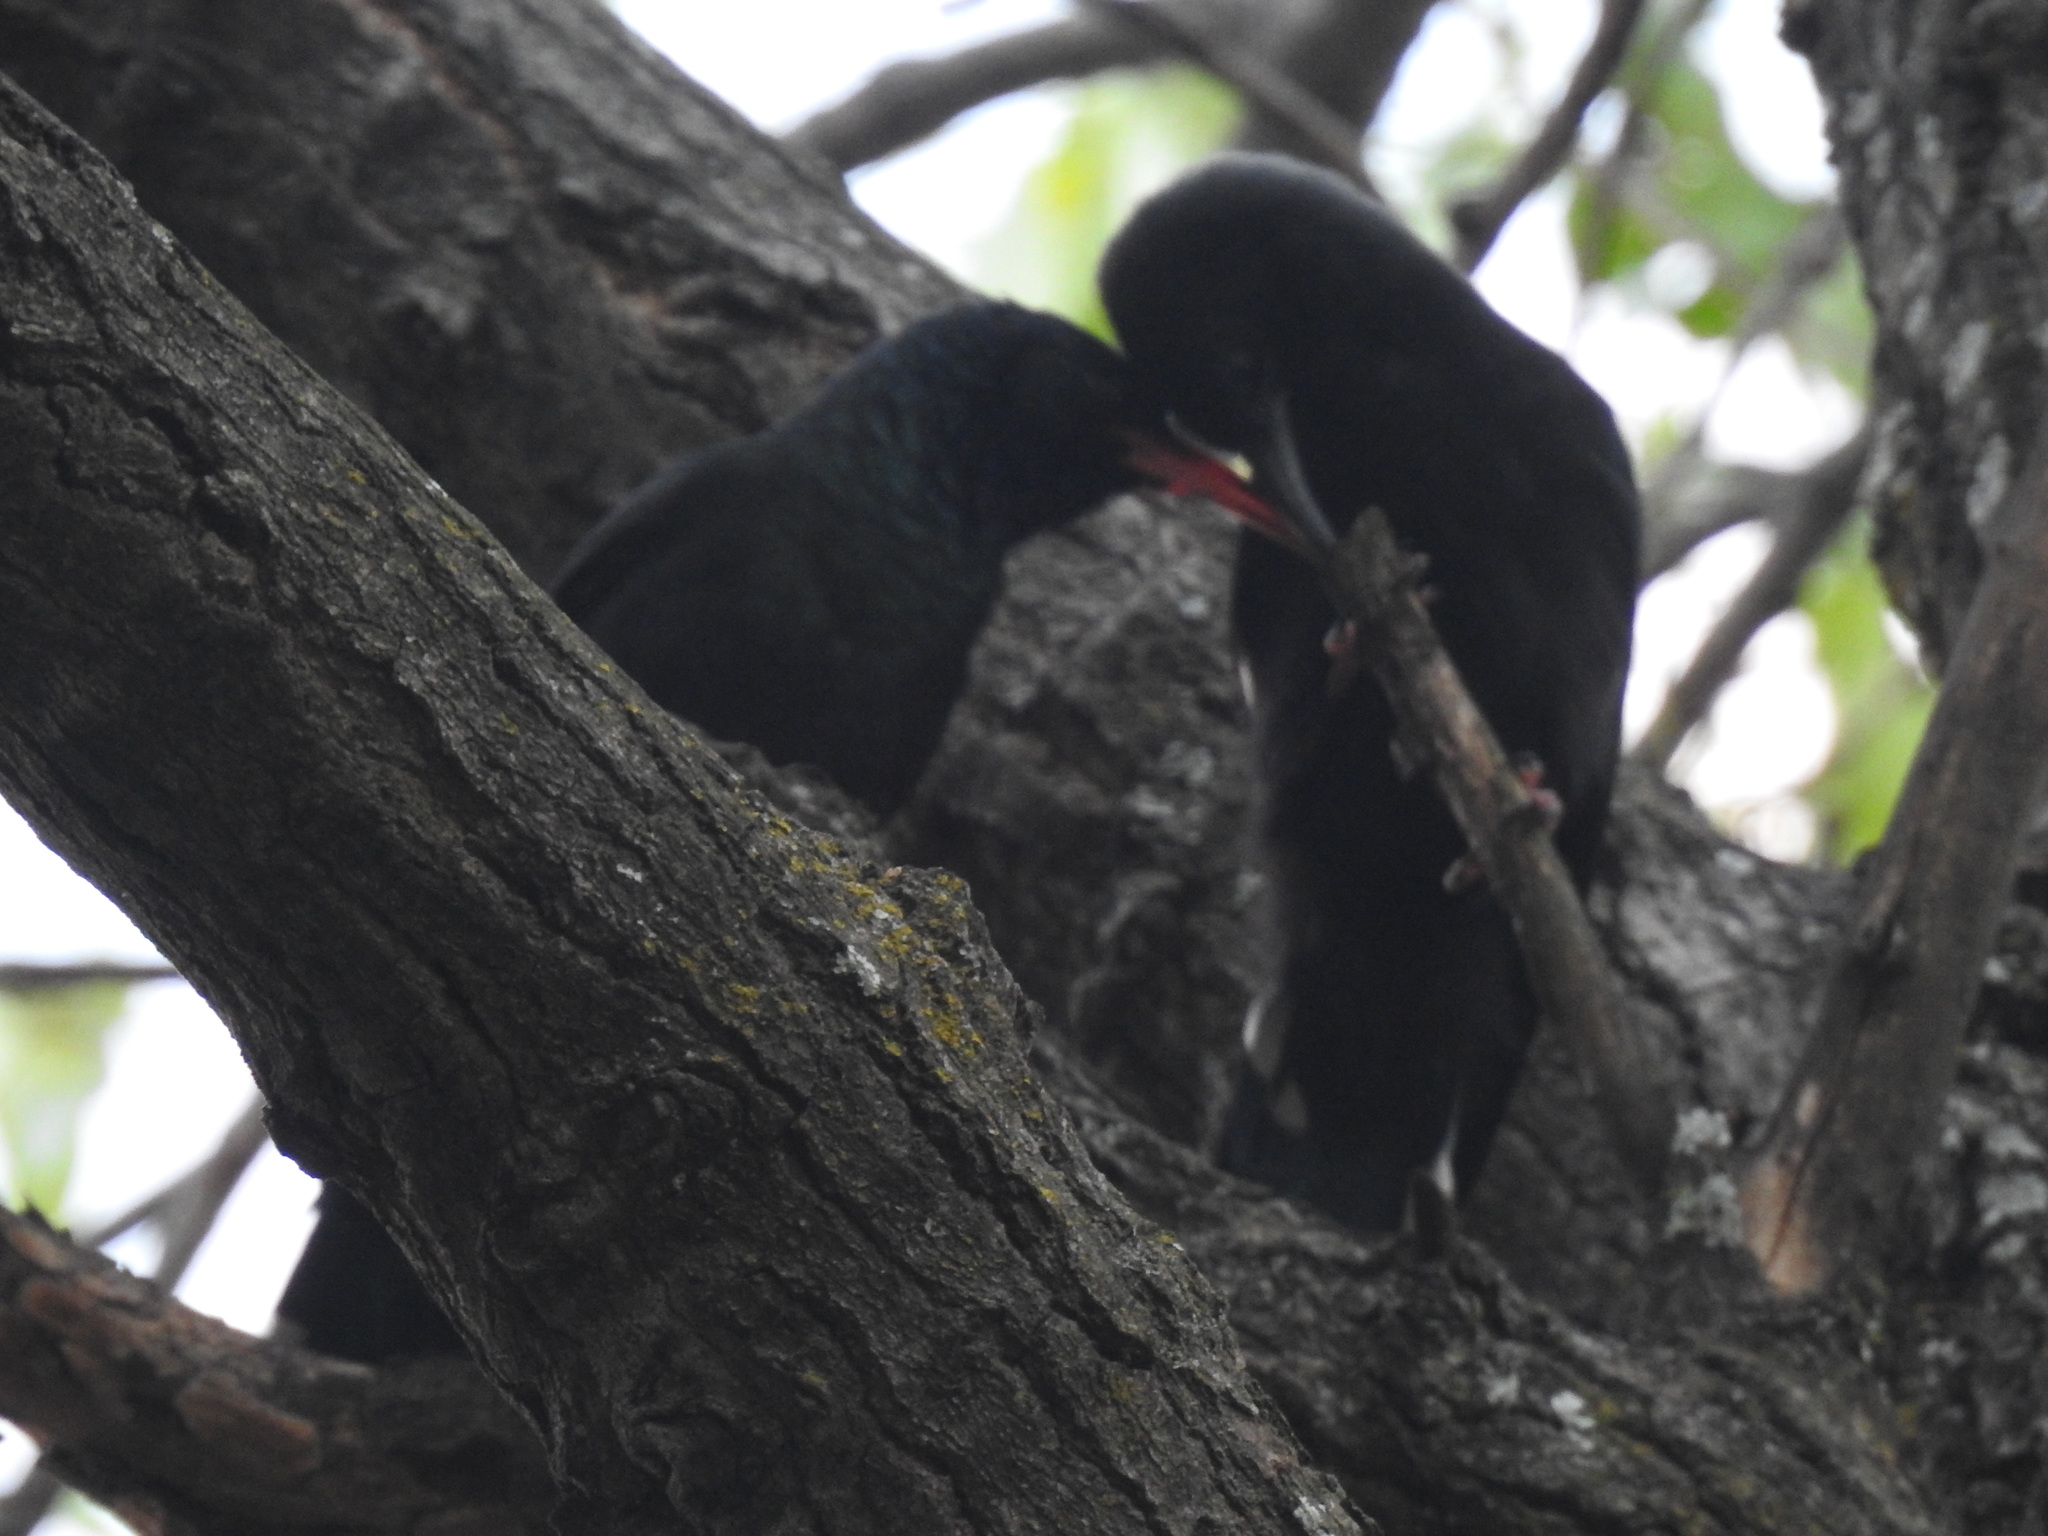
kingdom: Animalia
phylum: Chordata
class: Aves
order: Bucerotiformes
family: Phoeniculidae
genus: Phoeniculus
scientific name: Phoeniculus purpureus
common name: Green woodhoopoe
